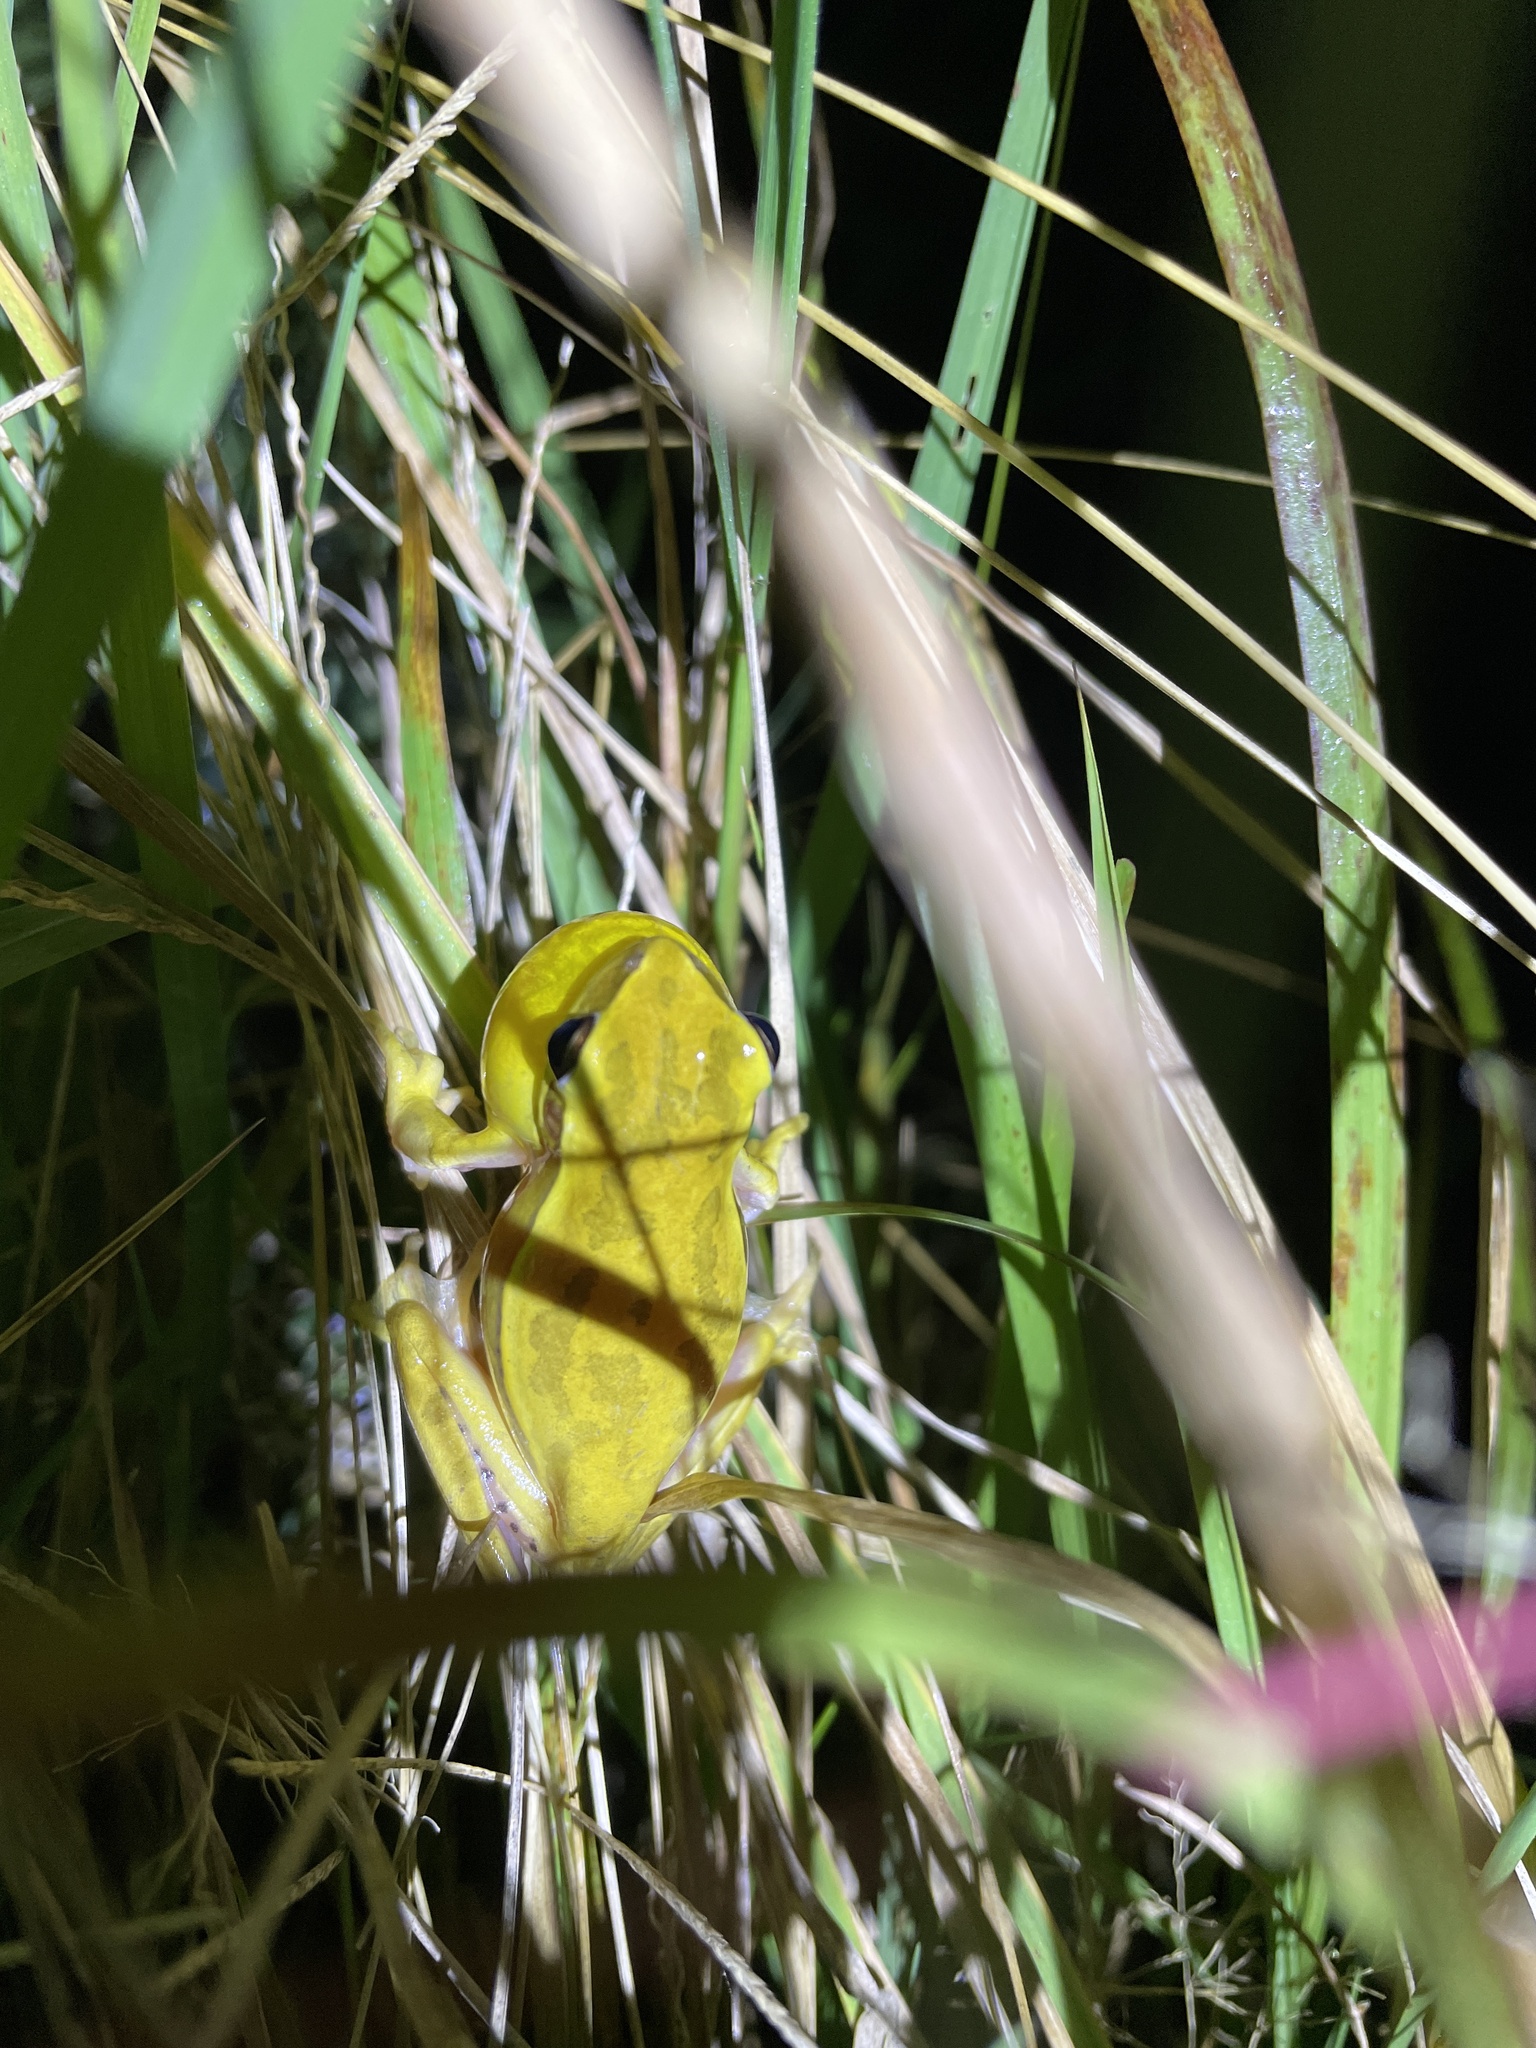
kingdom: Animalia
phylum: Chordata
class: Amphibia
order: Anura
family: Hylidae
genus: Boana
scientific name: Boana pulchella
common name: Montevideo treefrog
